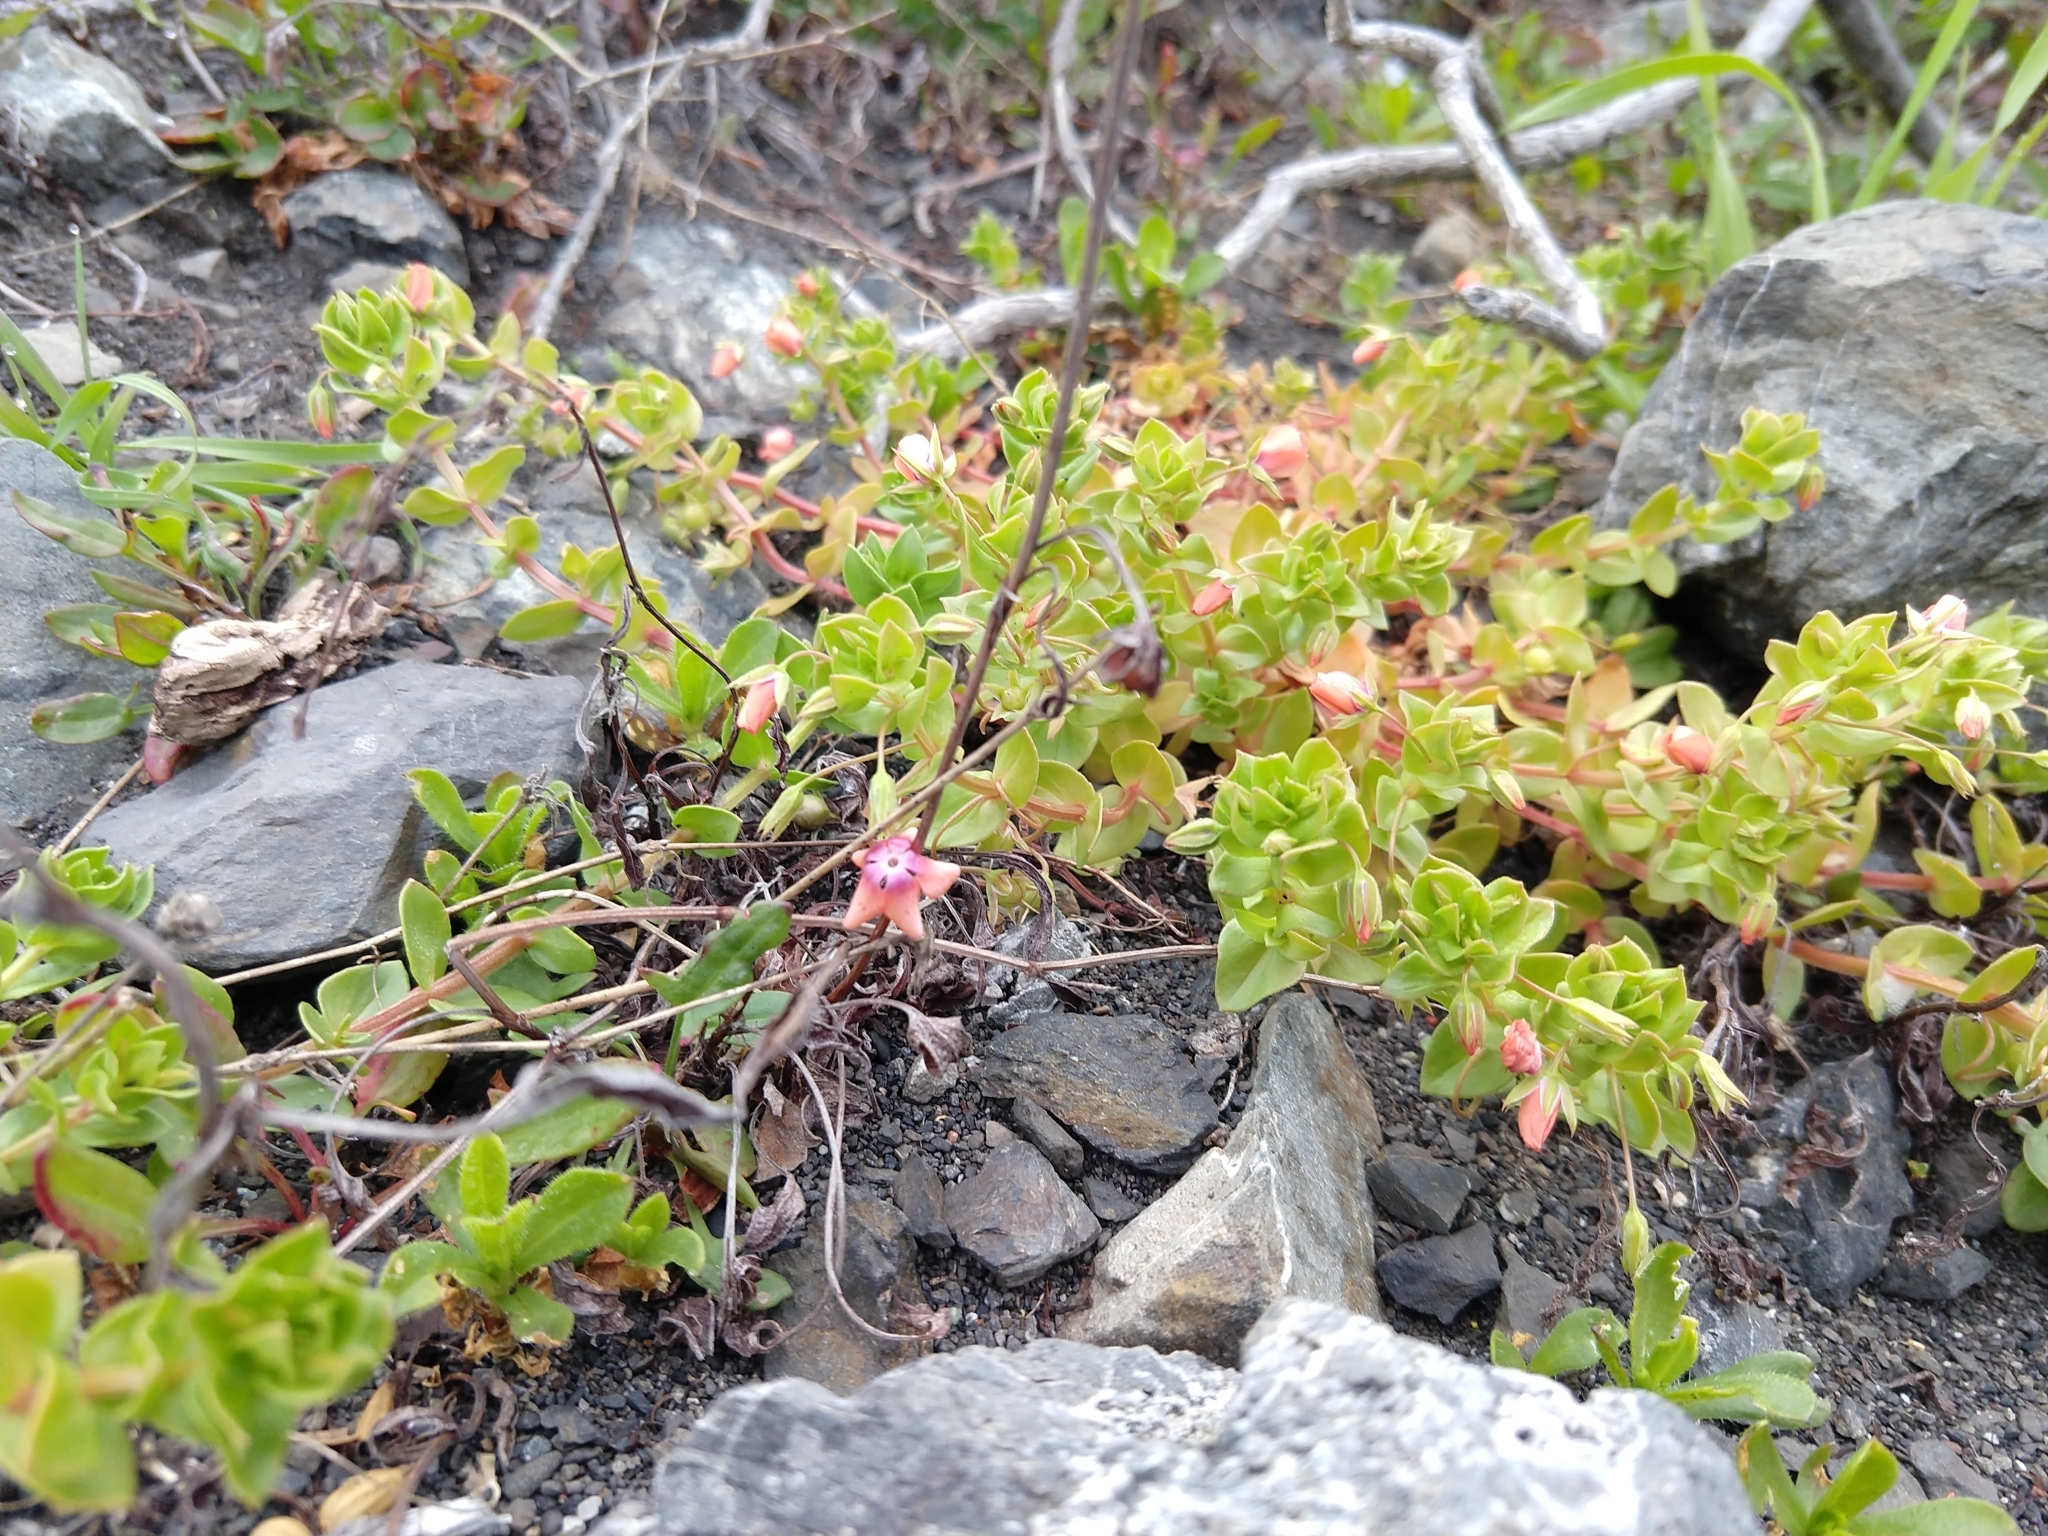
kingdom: Plantae
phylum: Tracheophyta
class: Magnoliopsida
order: Ericales
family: Primulaceae
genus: Lysimachia
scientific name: Lysimachia arvensis
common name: Scarlet pimpernel
